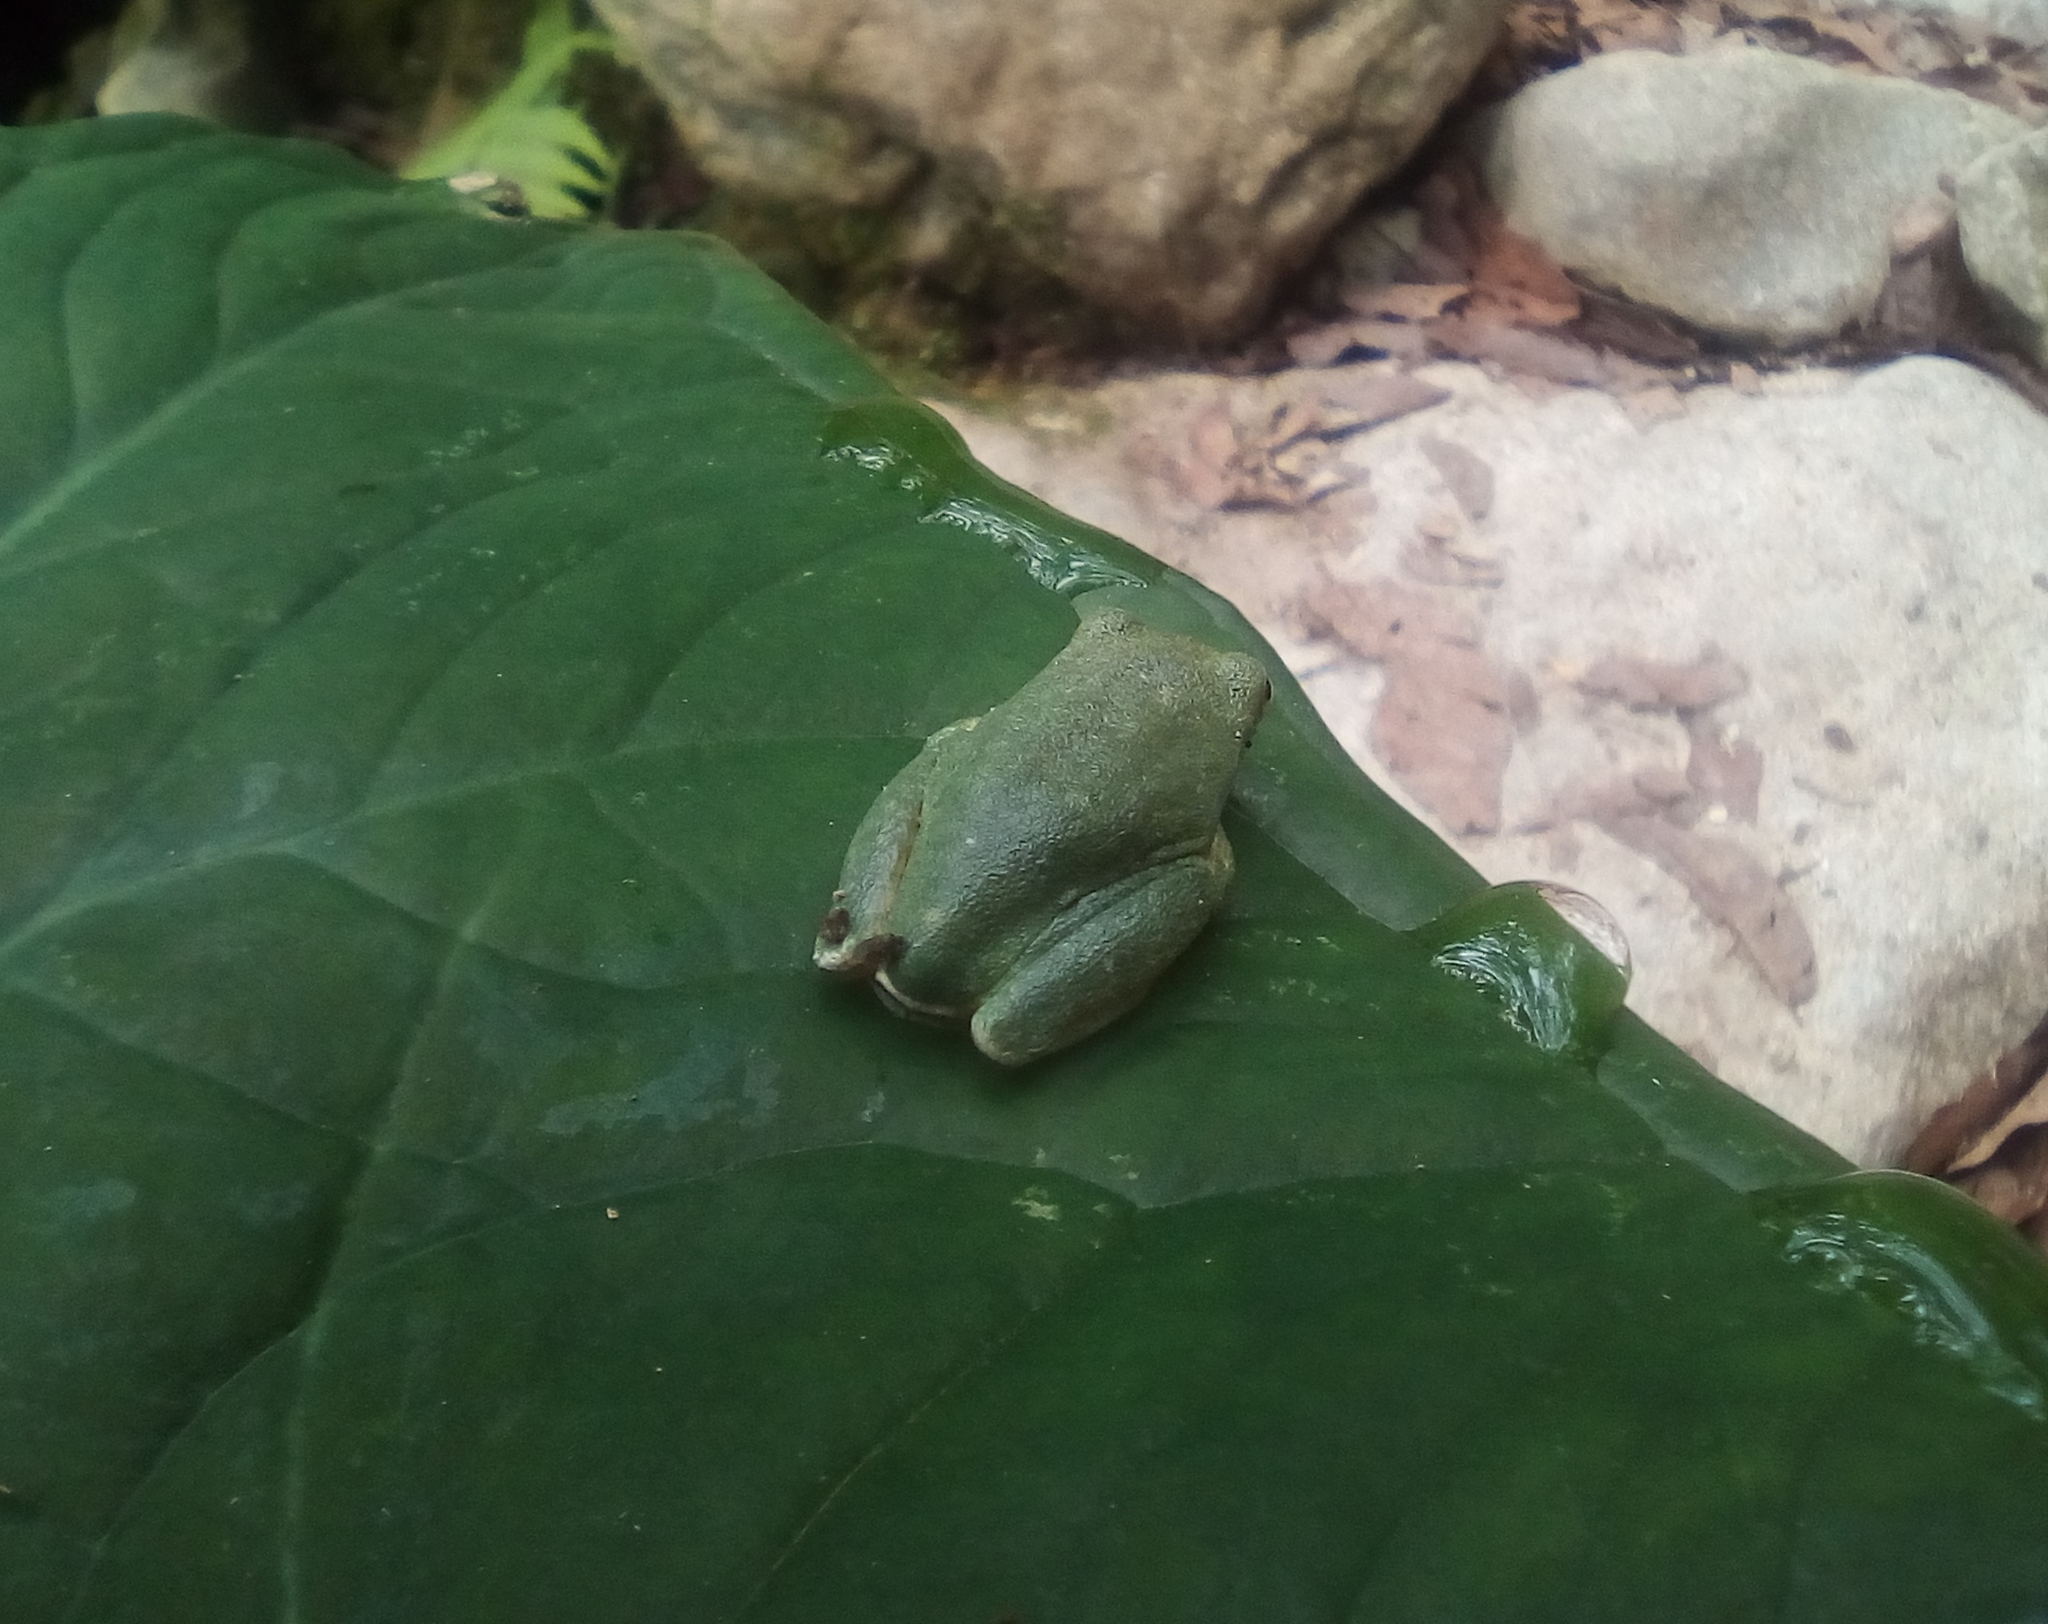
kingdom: Animalia
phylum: Chordata
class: Amphibia
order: Anura
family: Hylidae
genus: Rheohyla
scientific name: Rheohyla miotympanum
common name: Small-eard hyla
